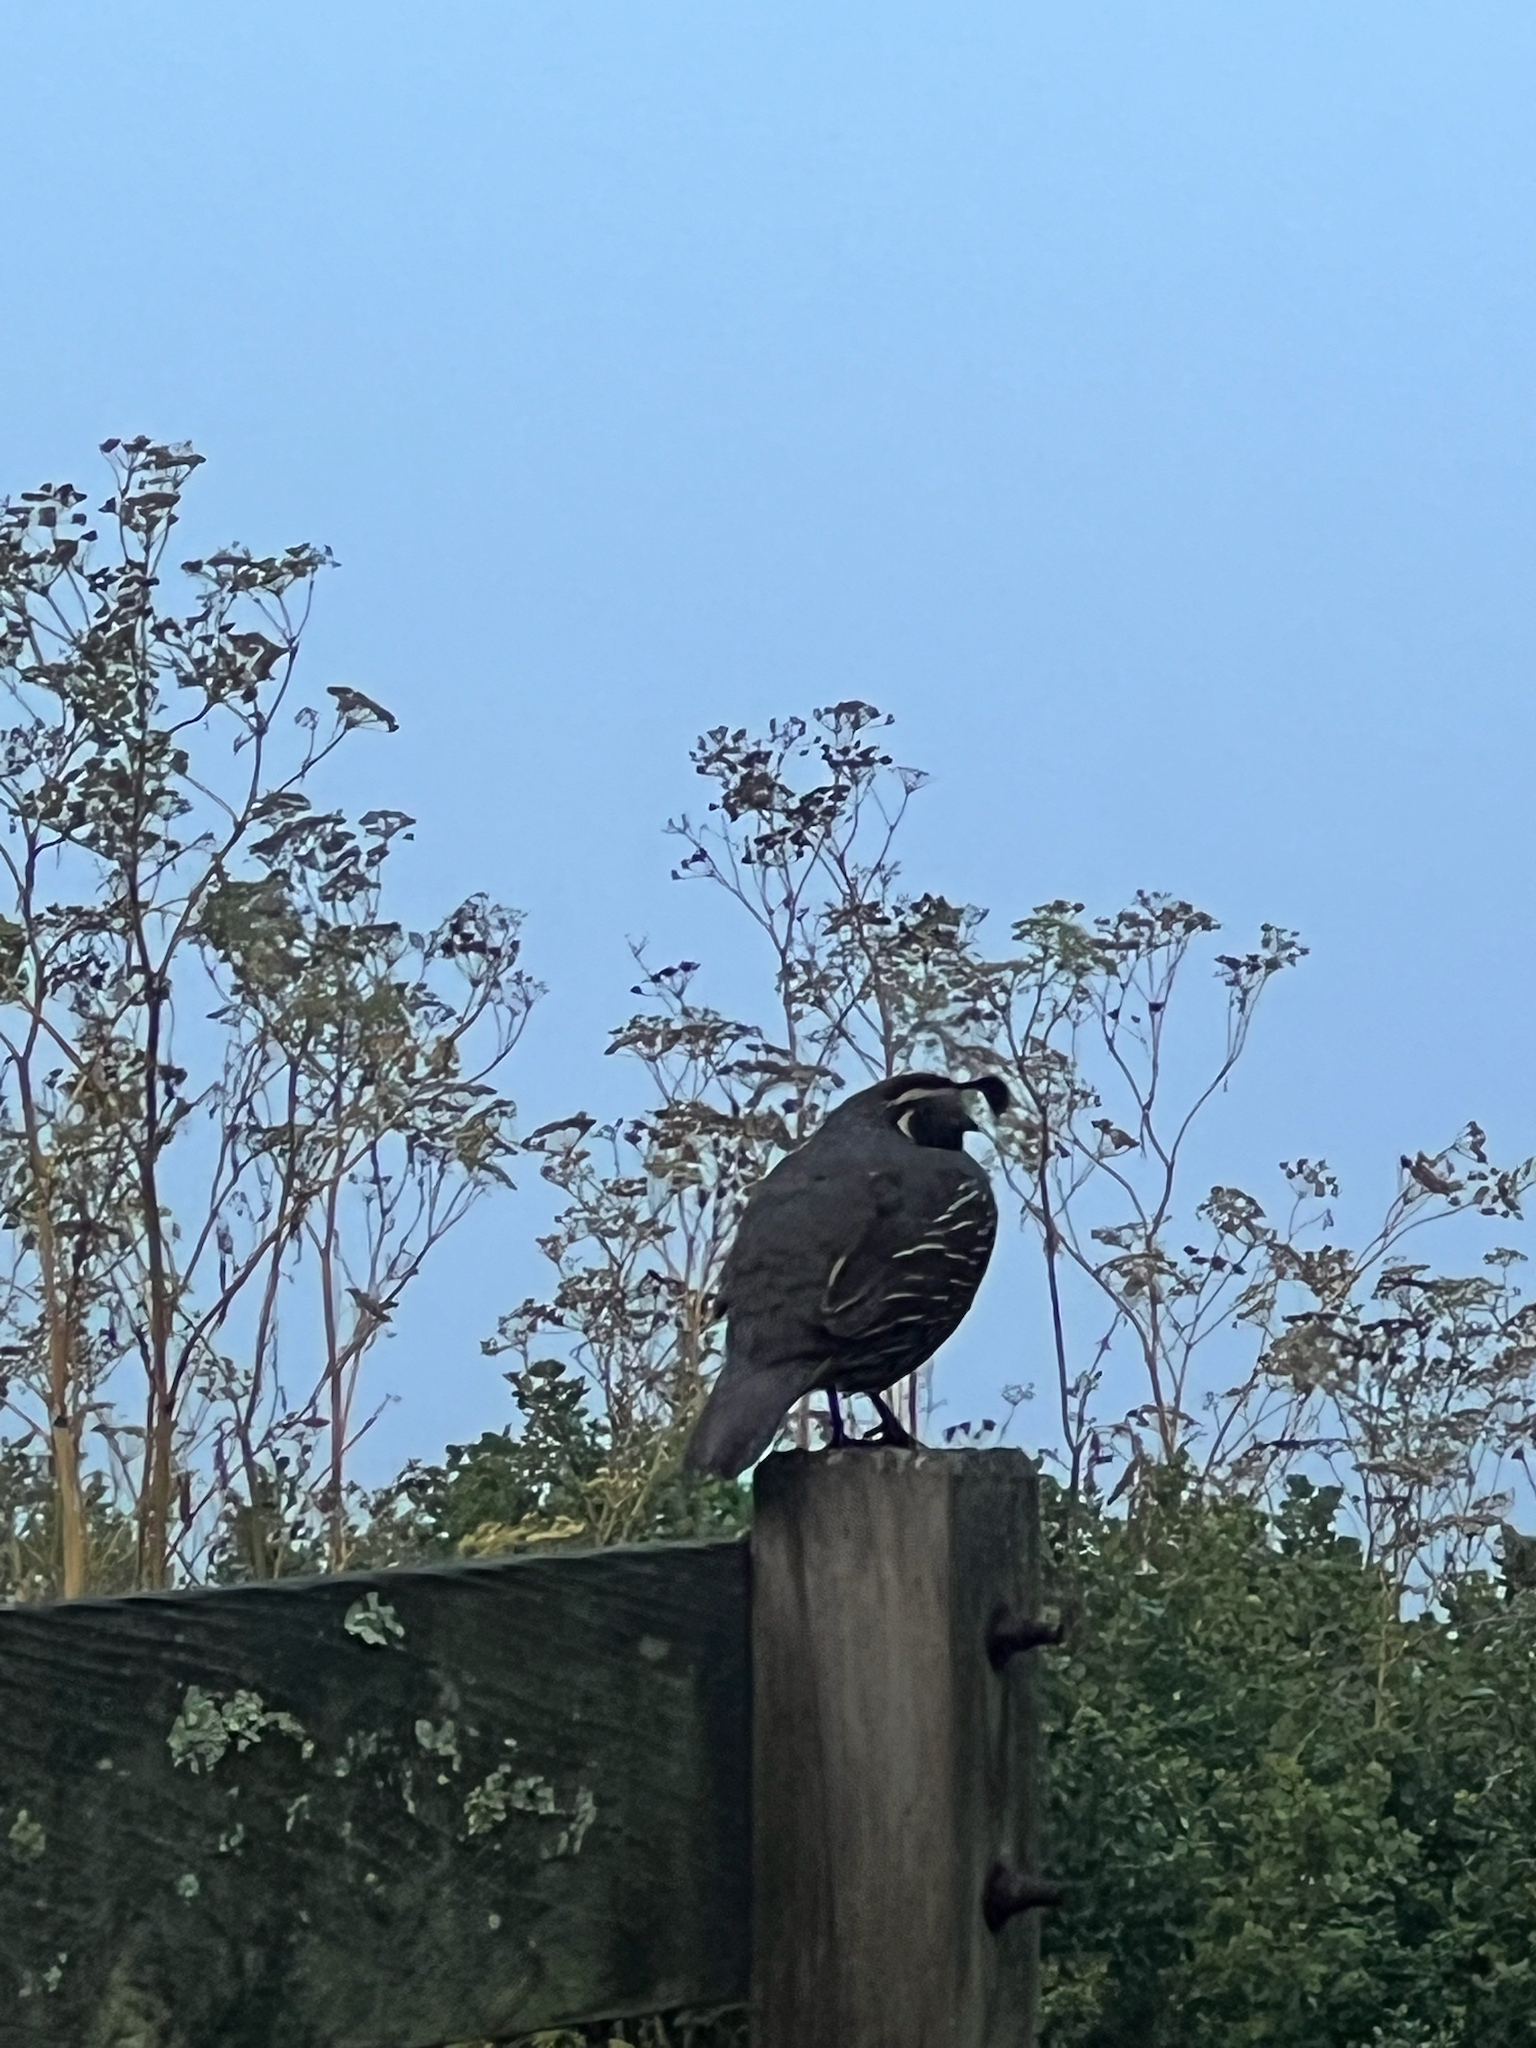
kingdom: Animalia
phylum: Chordata
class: Aves
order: Galliformes
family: Odontophoridae
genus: Callipepla
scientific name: Callipepla californica
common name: California quail
